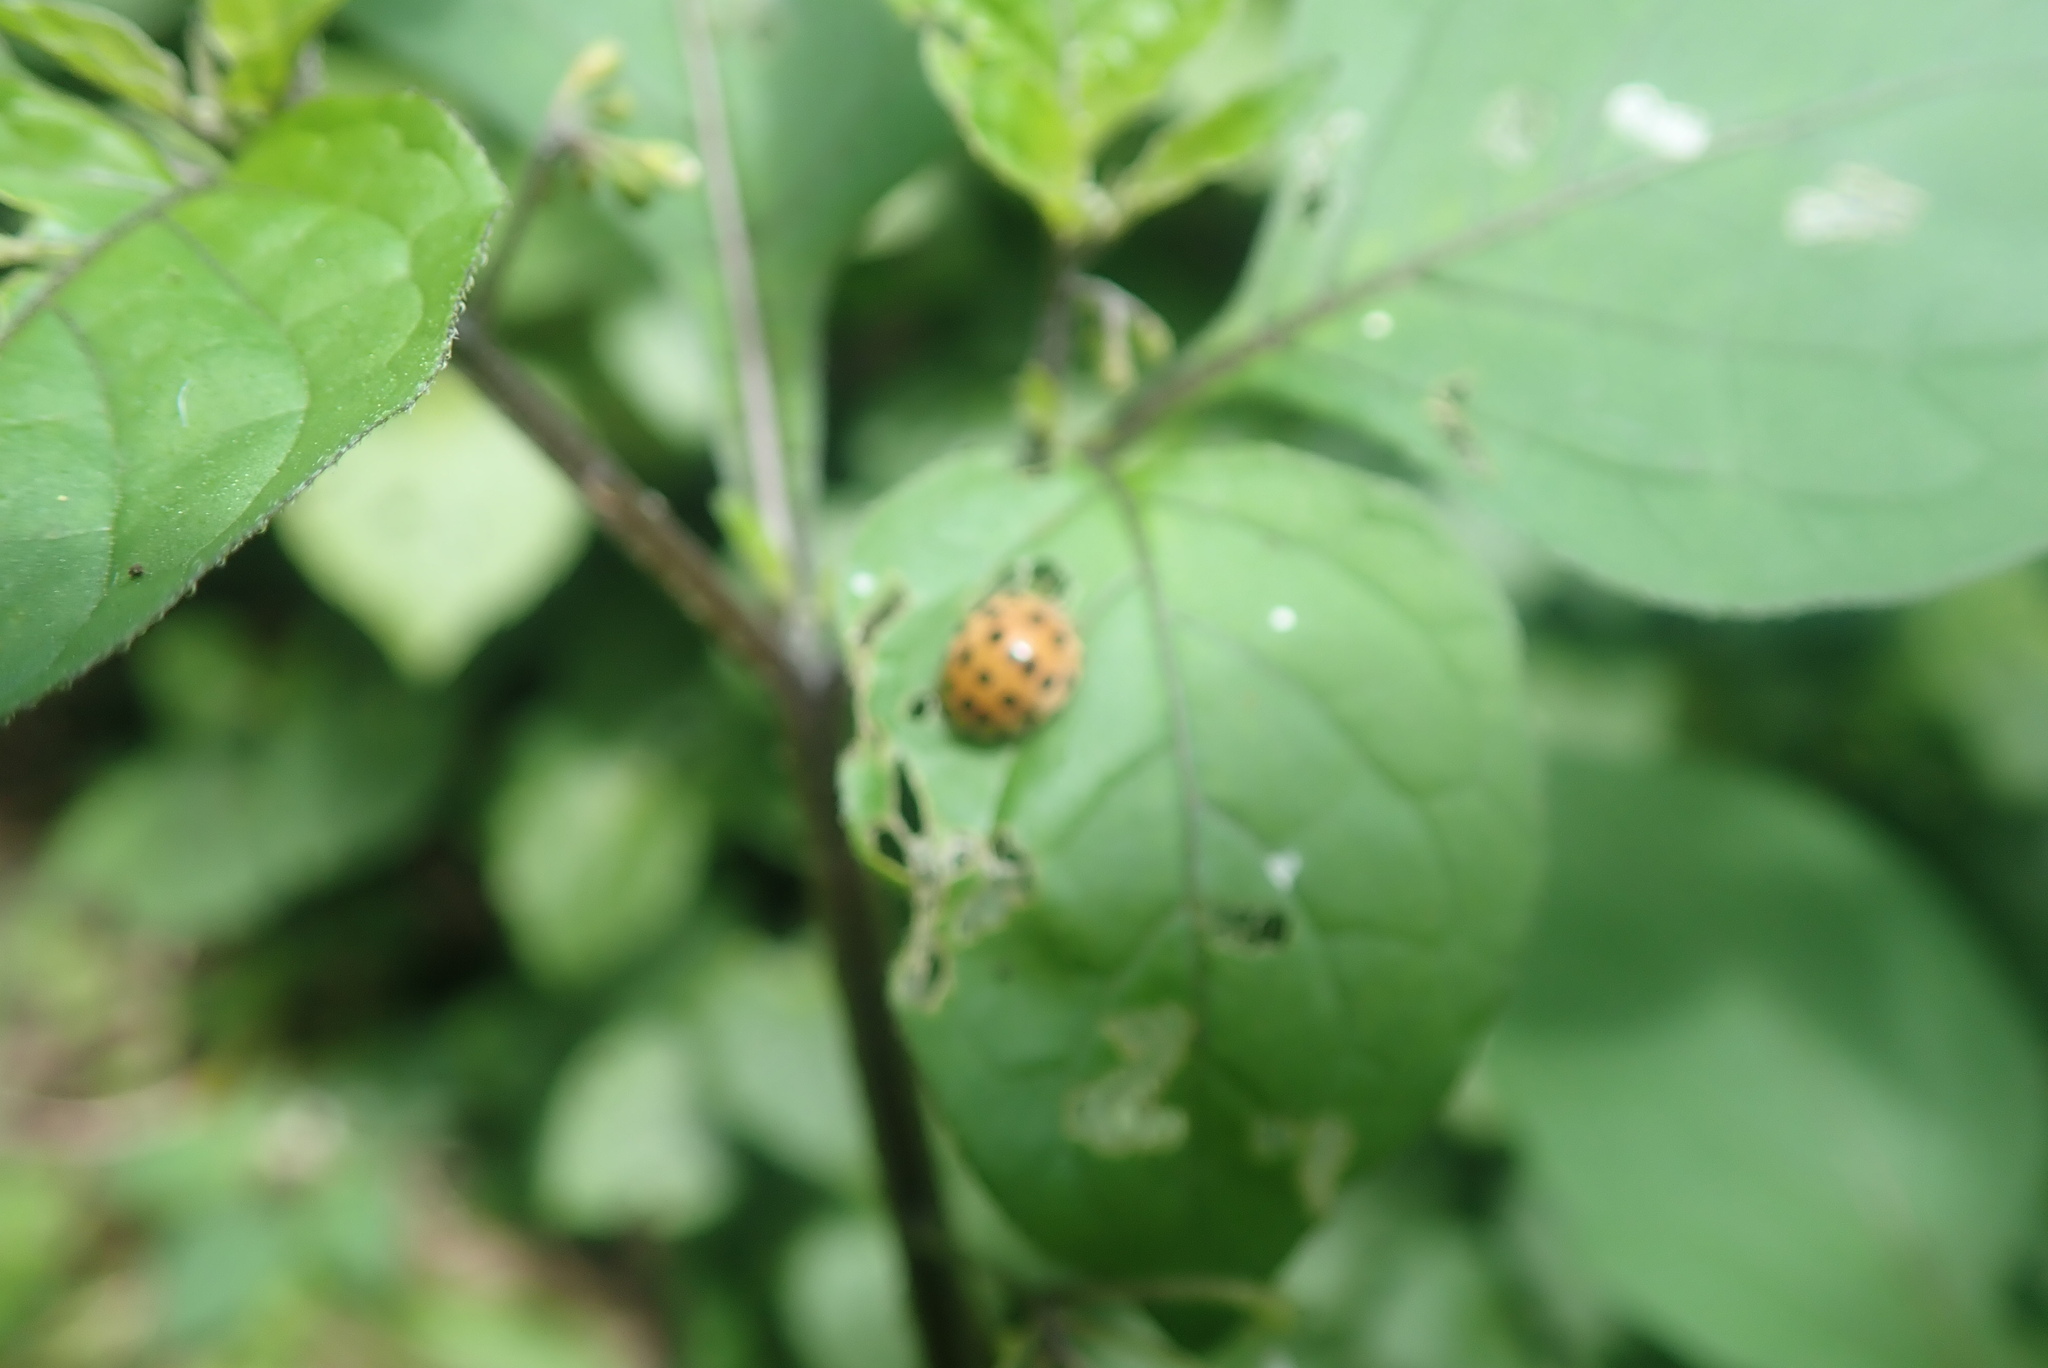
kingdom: Animalia
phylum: Arthropoda
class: Insecta
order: Coleoptera
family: Coccinellidae
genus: Henosepilachna
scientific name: Henosepilachna vigintioctopunctata
